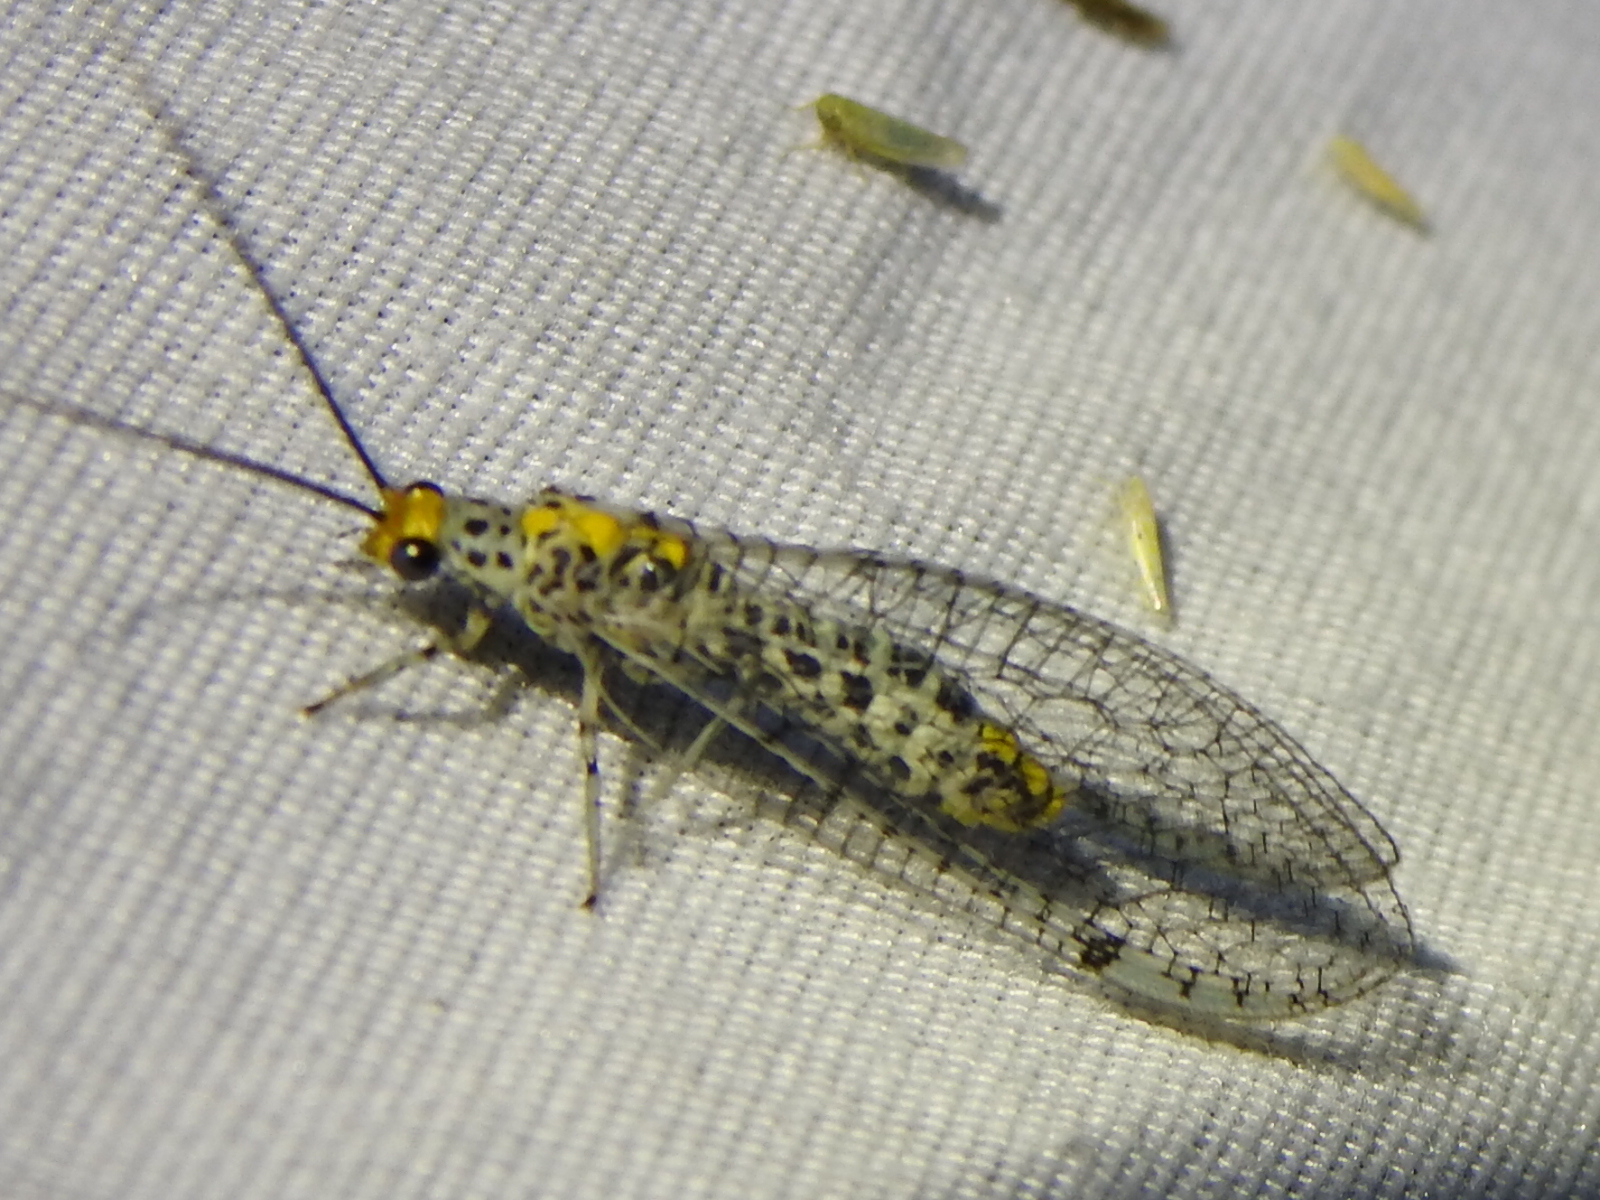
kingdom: Animalia
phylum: Arthropoda
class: Insecta
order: Neuroptera
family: Chrysopidae
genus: Abachrysa
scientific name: Abachrysa eureka
